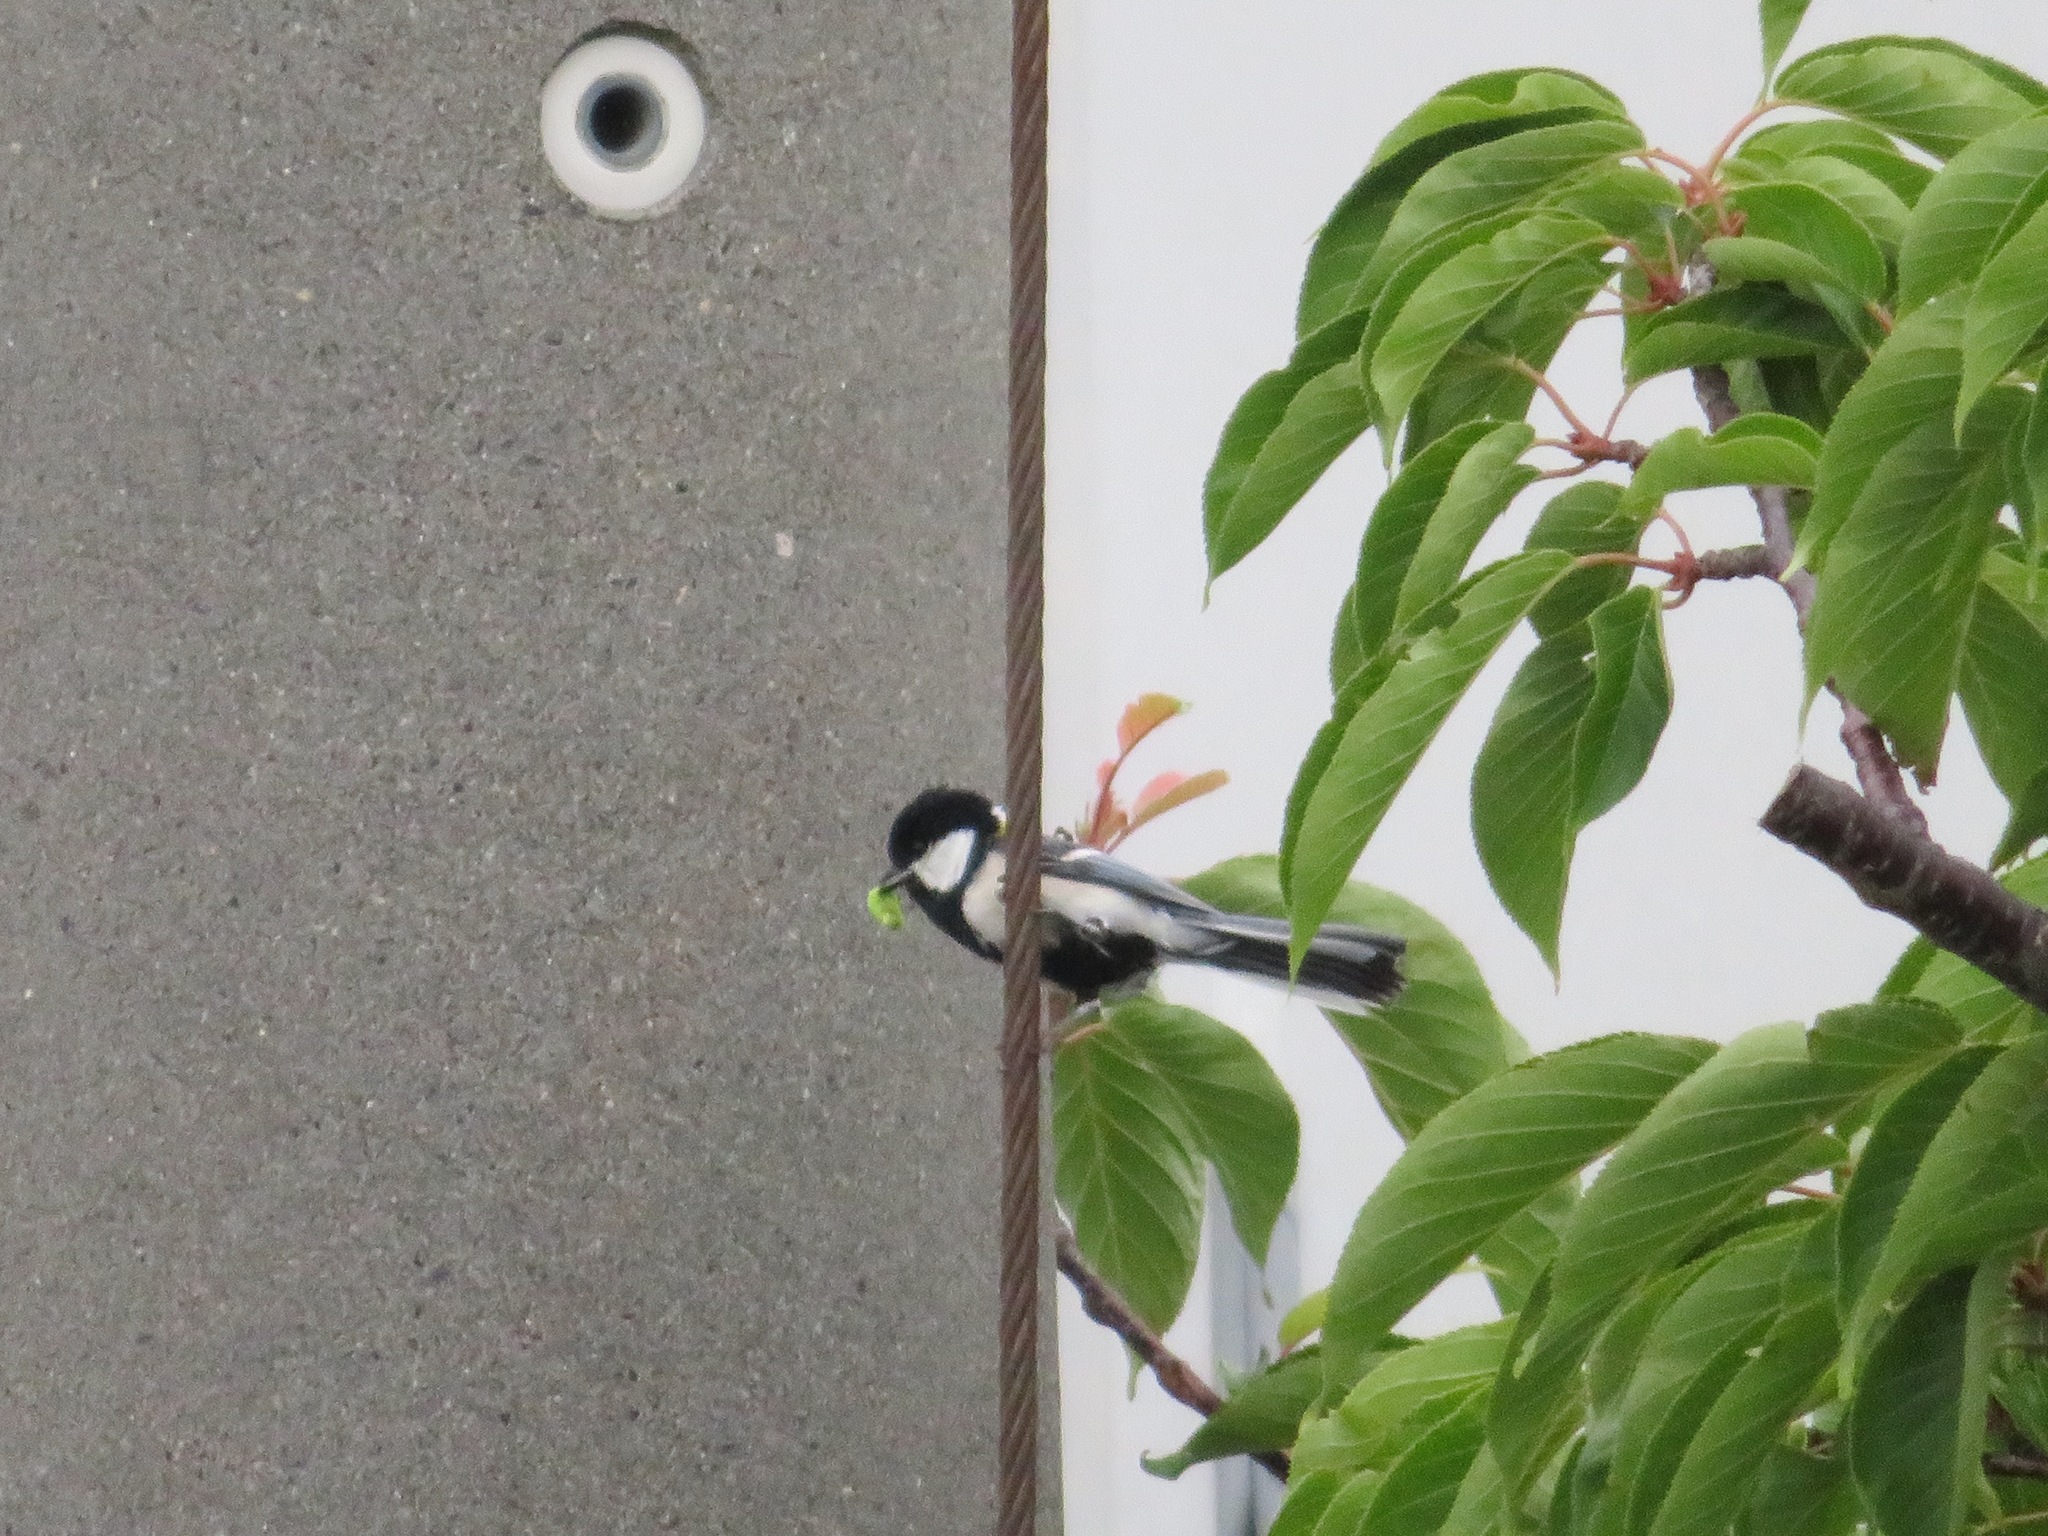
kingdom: Animalia
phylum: Chordata
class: Aves
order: Passeriformes
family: Paridae
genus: Parus
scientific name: Parus minor
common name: Japanese tit
